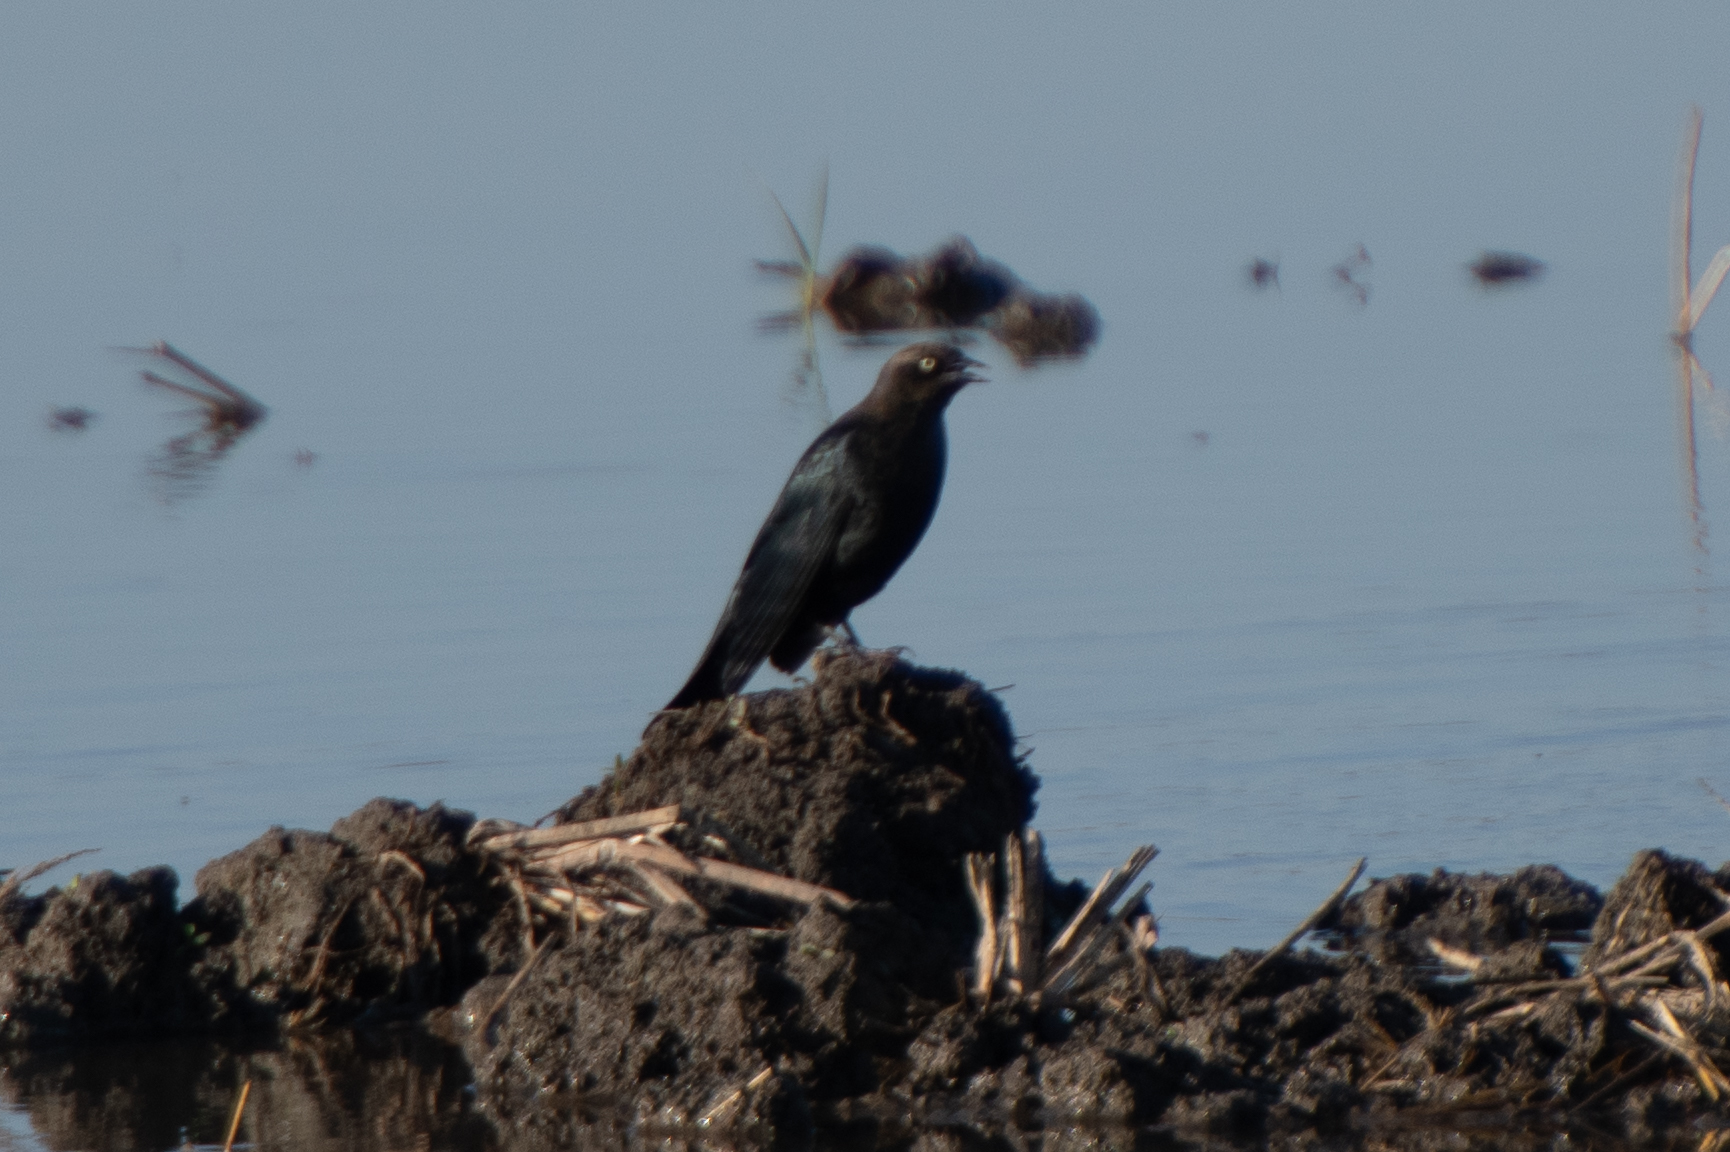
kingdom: Animalia
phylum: Chordata
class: Aves
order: Passeriformes
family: Icteridae
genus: Euphagus
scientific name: Euphagus cyanocephalus
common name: Brewer's blackbird
